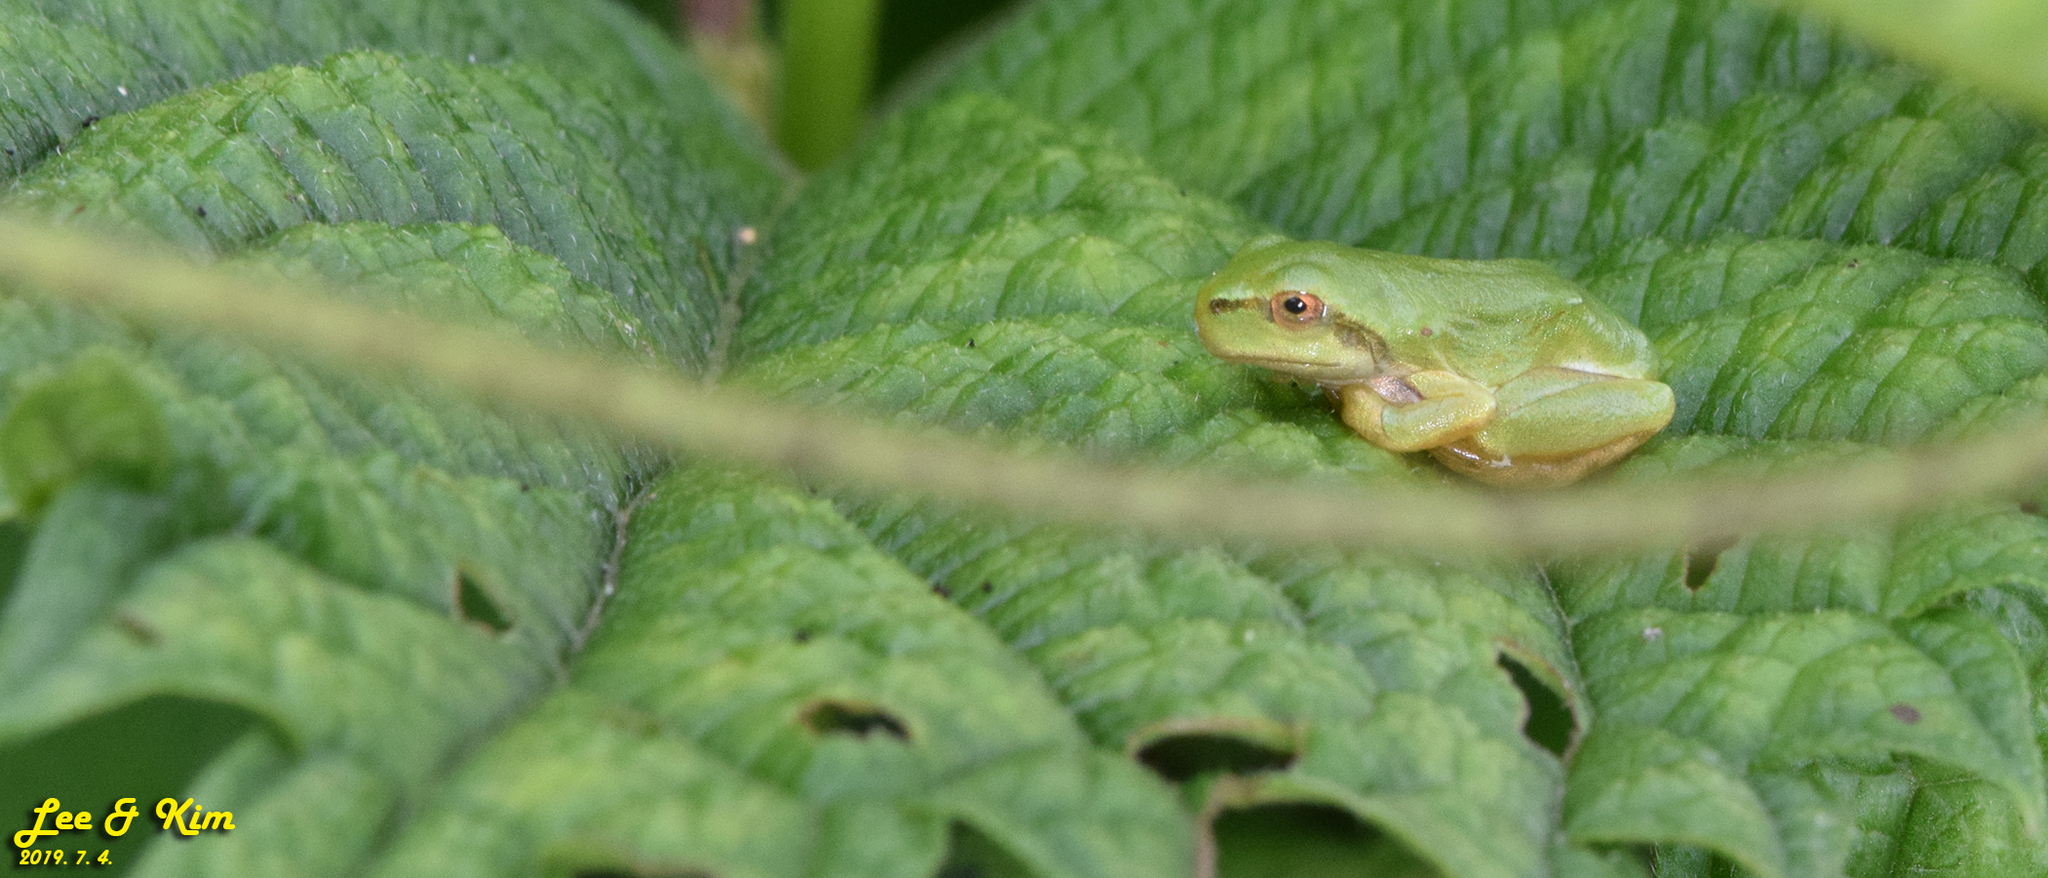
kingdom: Animalia
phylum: Chordata
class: Amphibia
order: Anura
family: Hylidae
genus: Dryophytes
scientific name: Dryophytes japonicus
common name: Japanese treefrog
